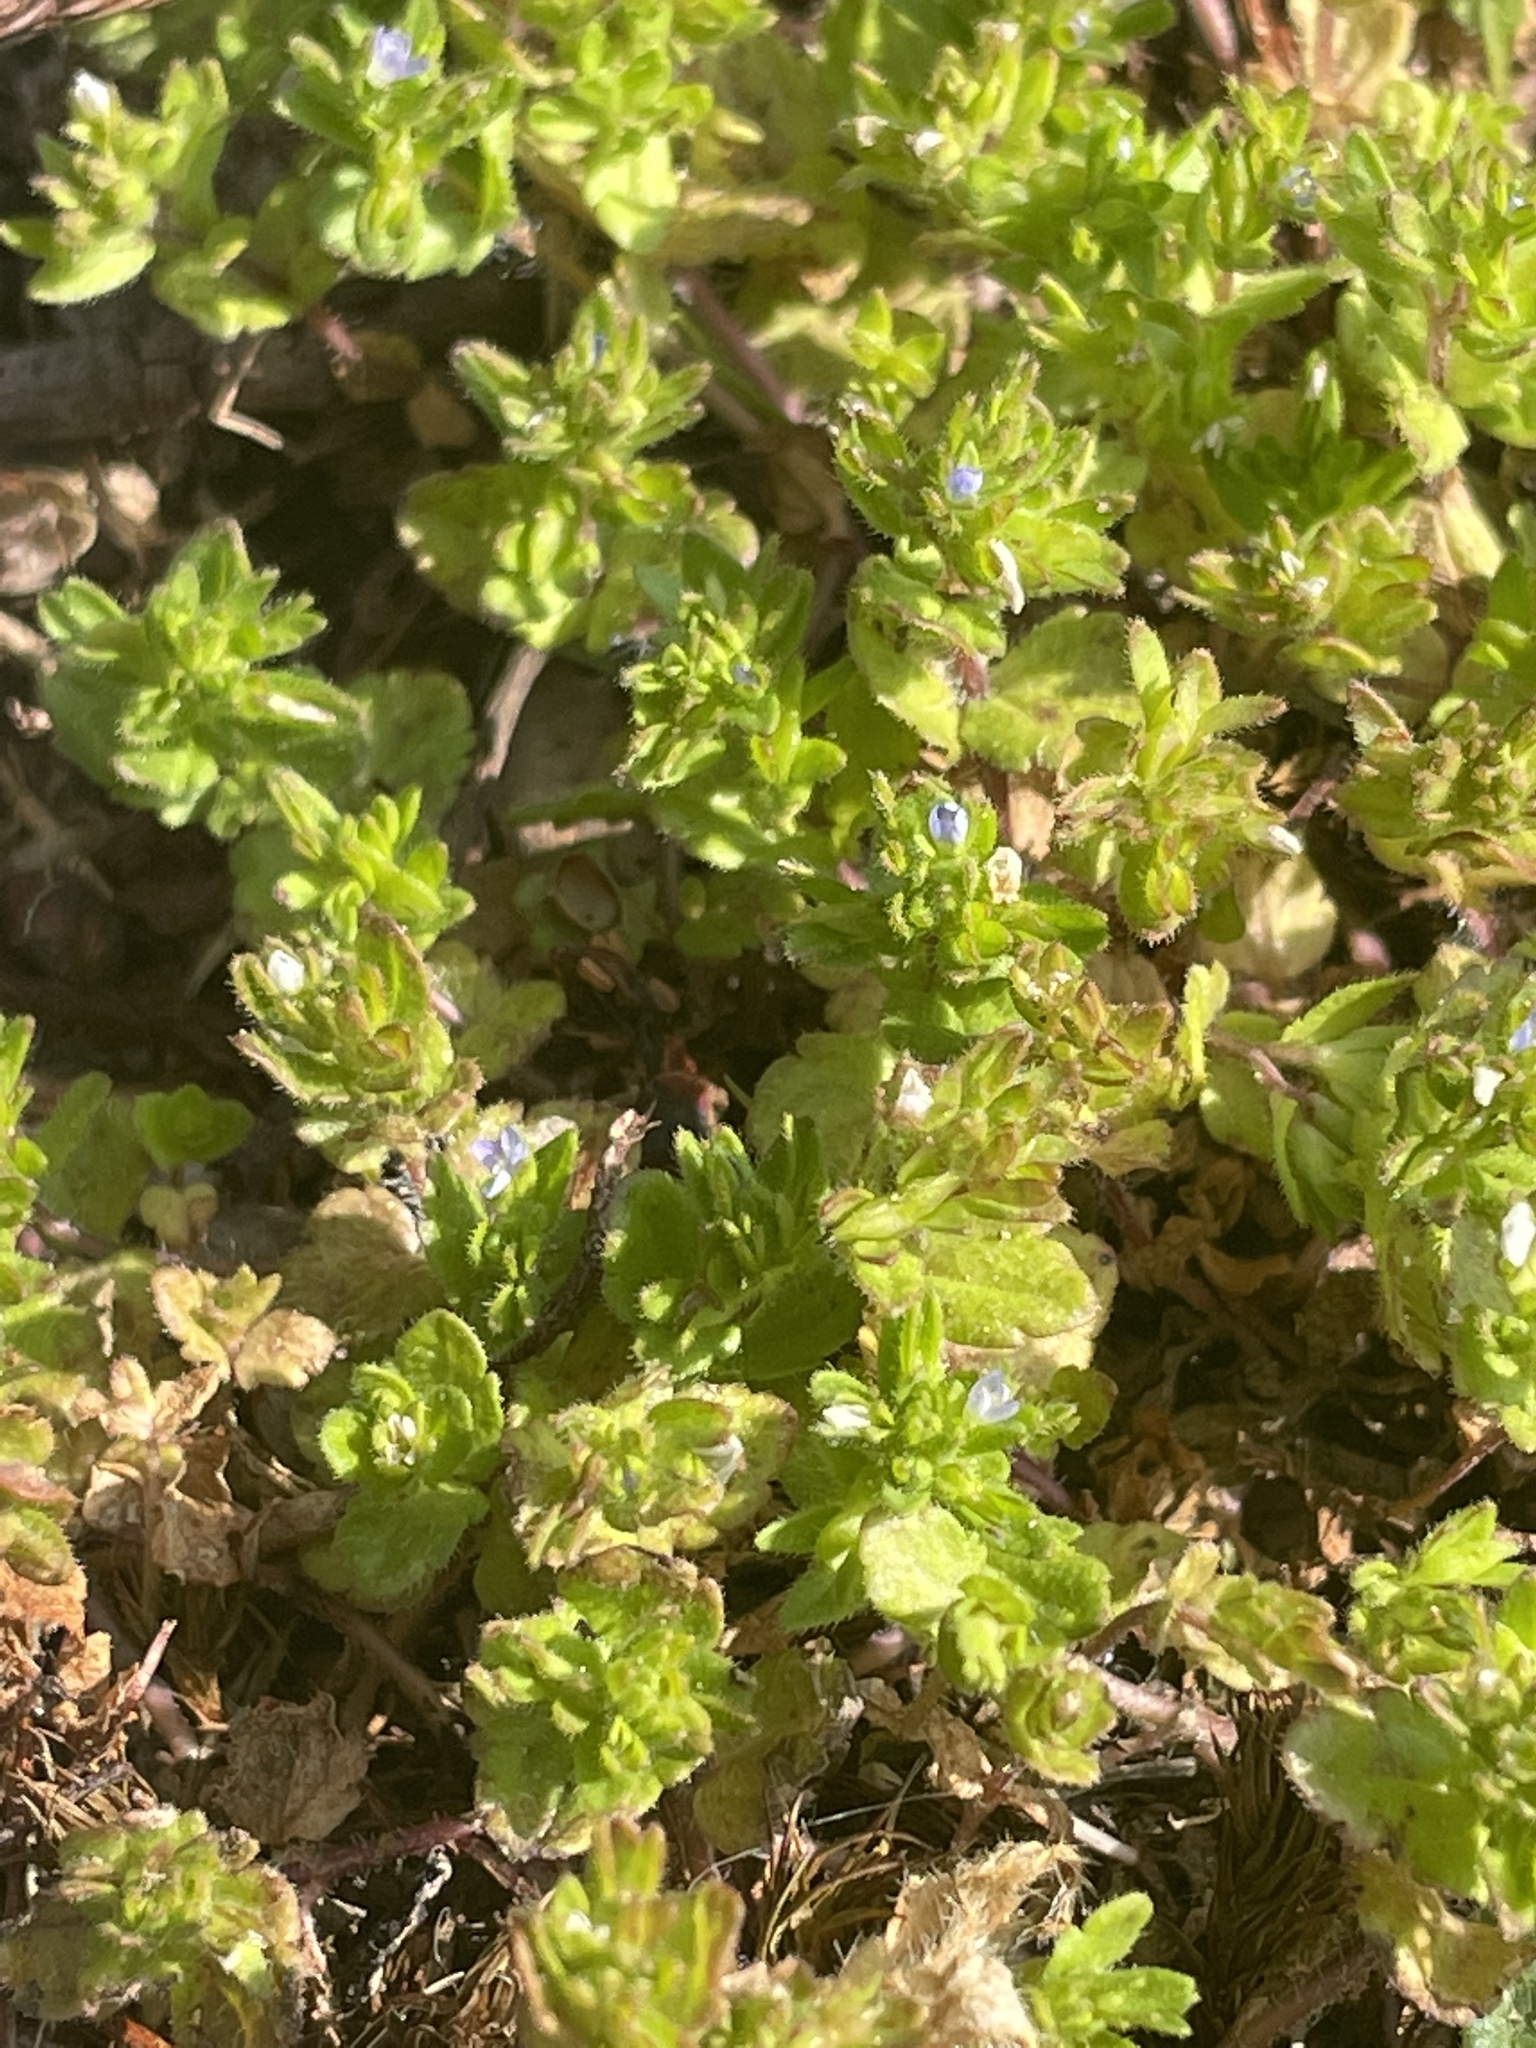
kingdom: Plantae
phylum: Tracheophyta
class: Magnoliopsida
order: Lamiales
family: Plantaginaceae
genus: Veronica
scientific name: Veronica arvensis
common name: Corn speedwell
